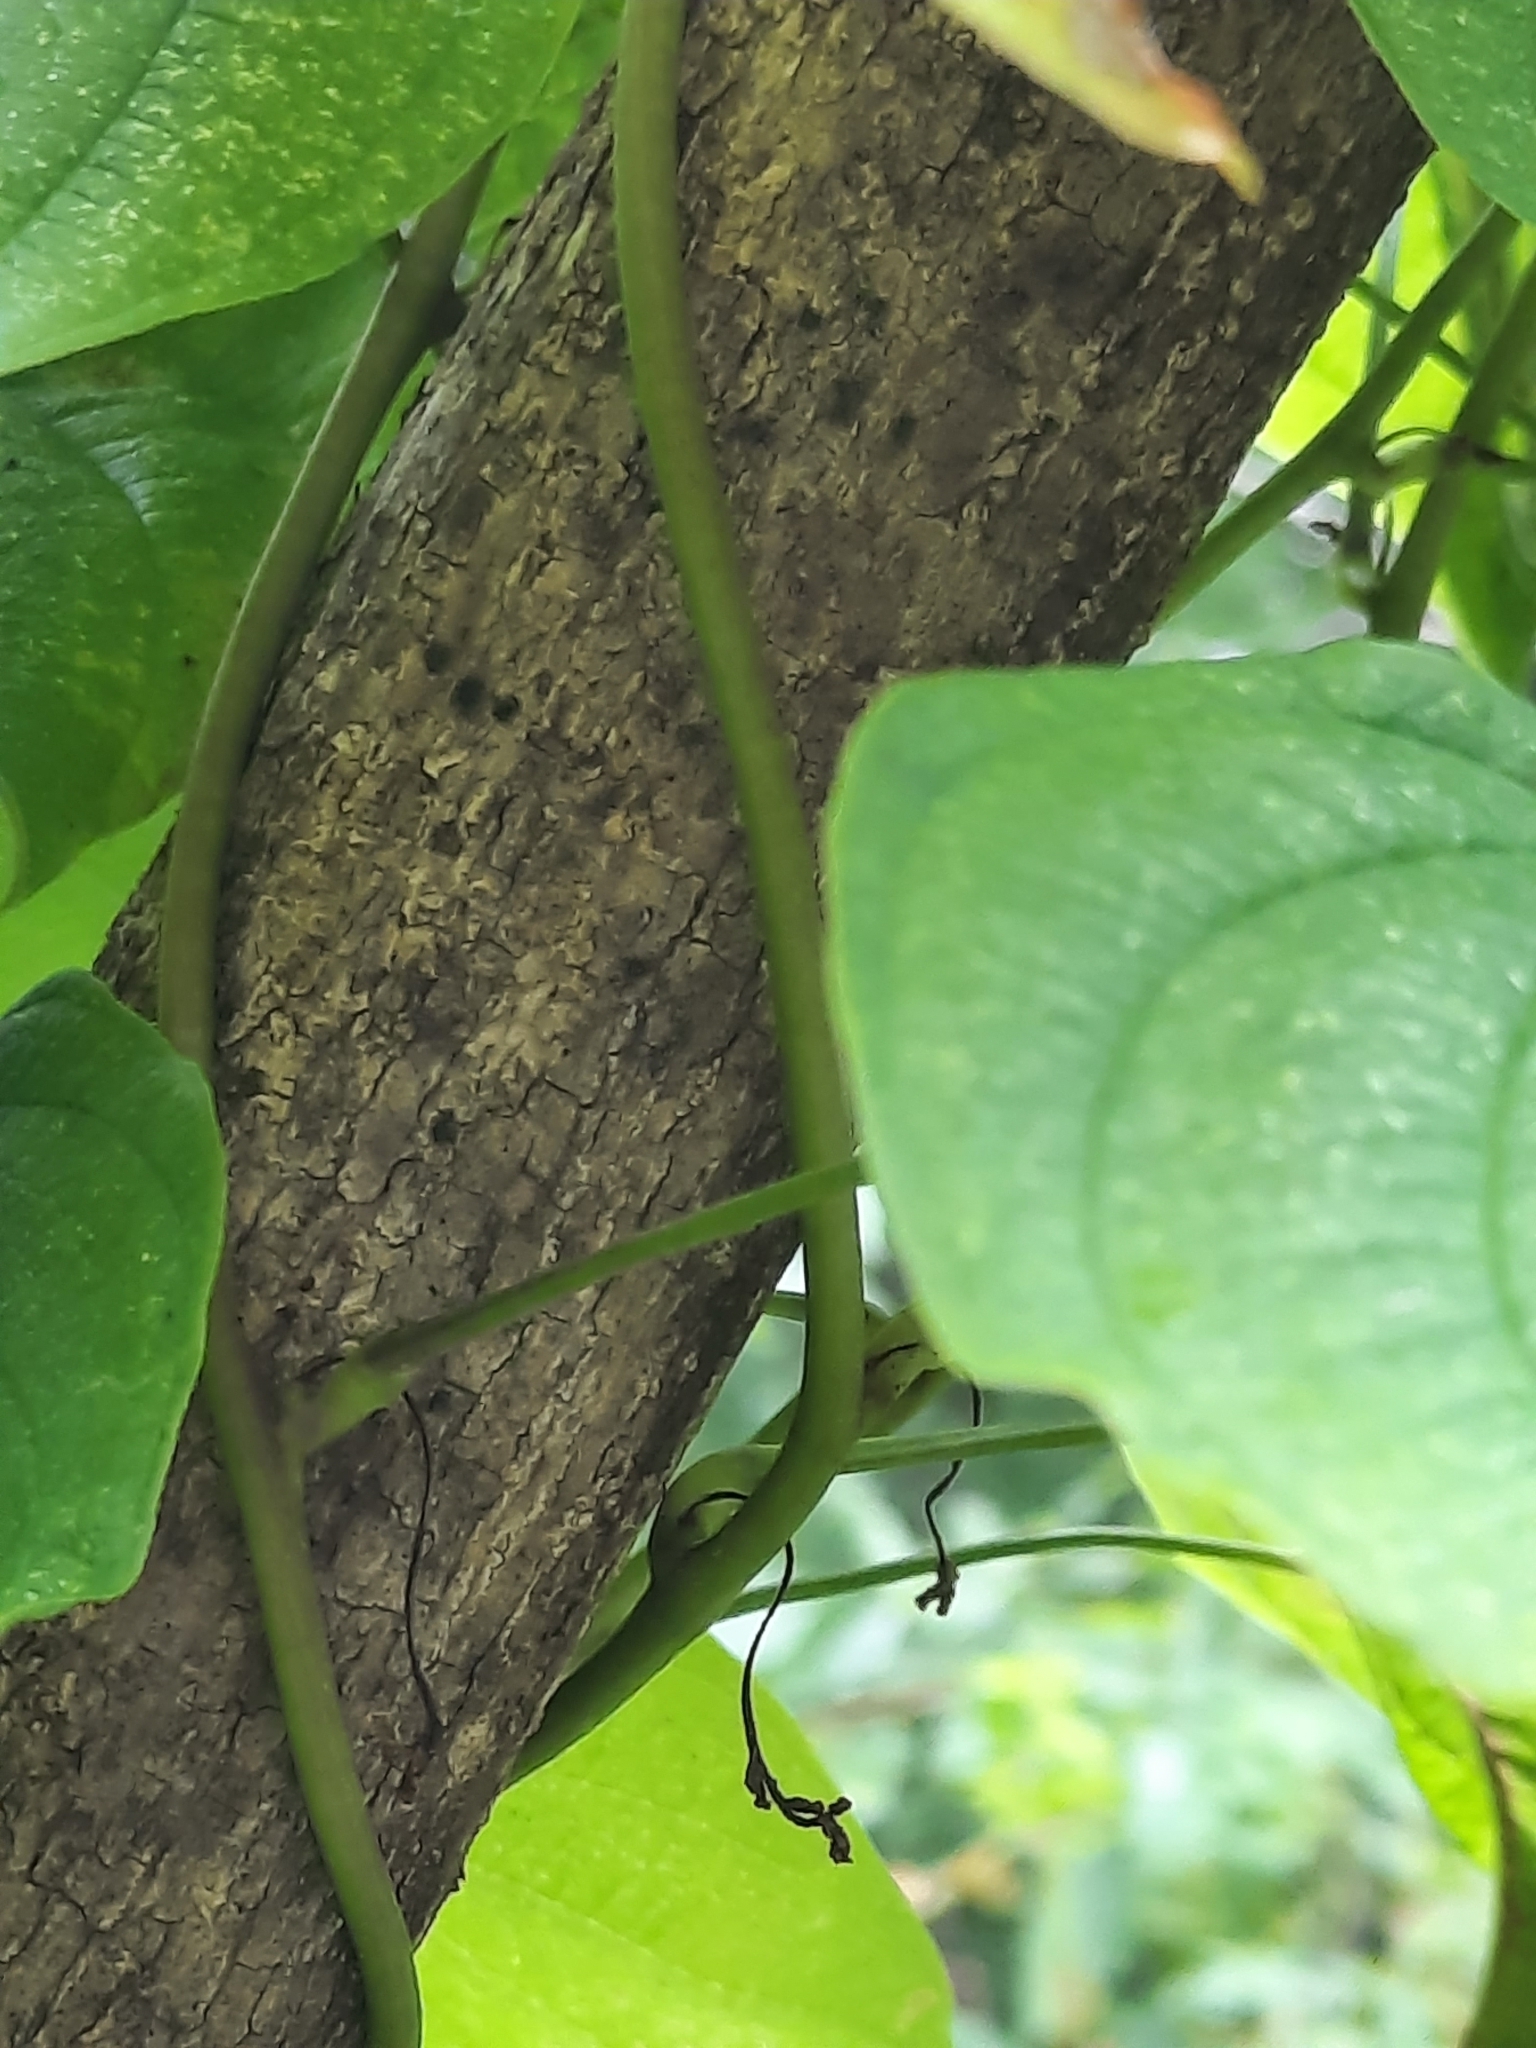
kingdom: Plantae
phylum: Tracheophyta
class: Liliopsida
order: Dioscoreales
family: Dioscoreaceae
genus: Dioscorea
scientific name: Dioscorea villosa
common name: Wild yam
